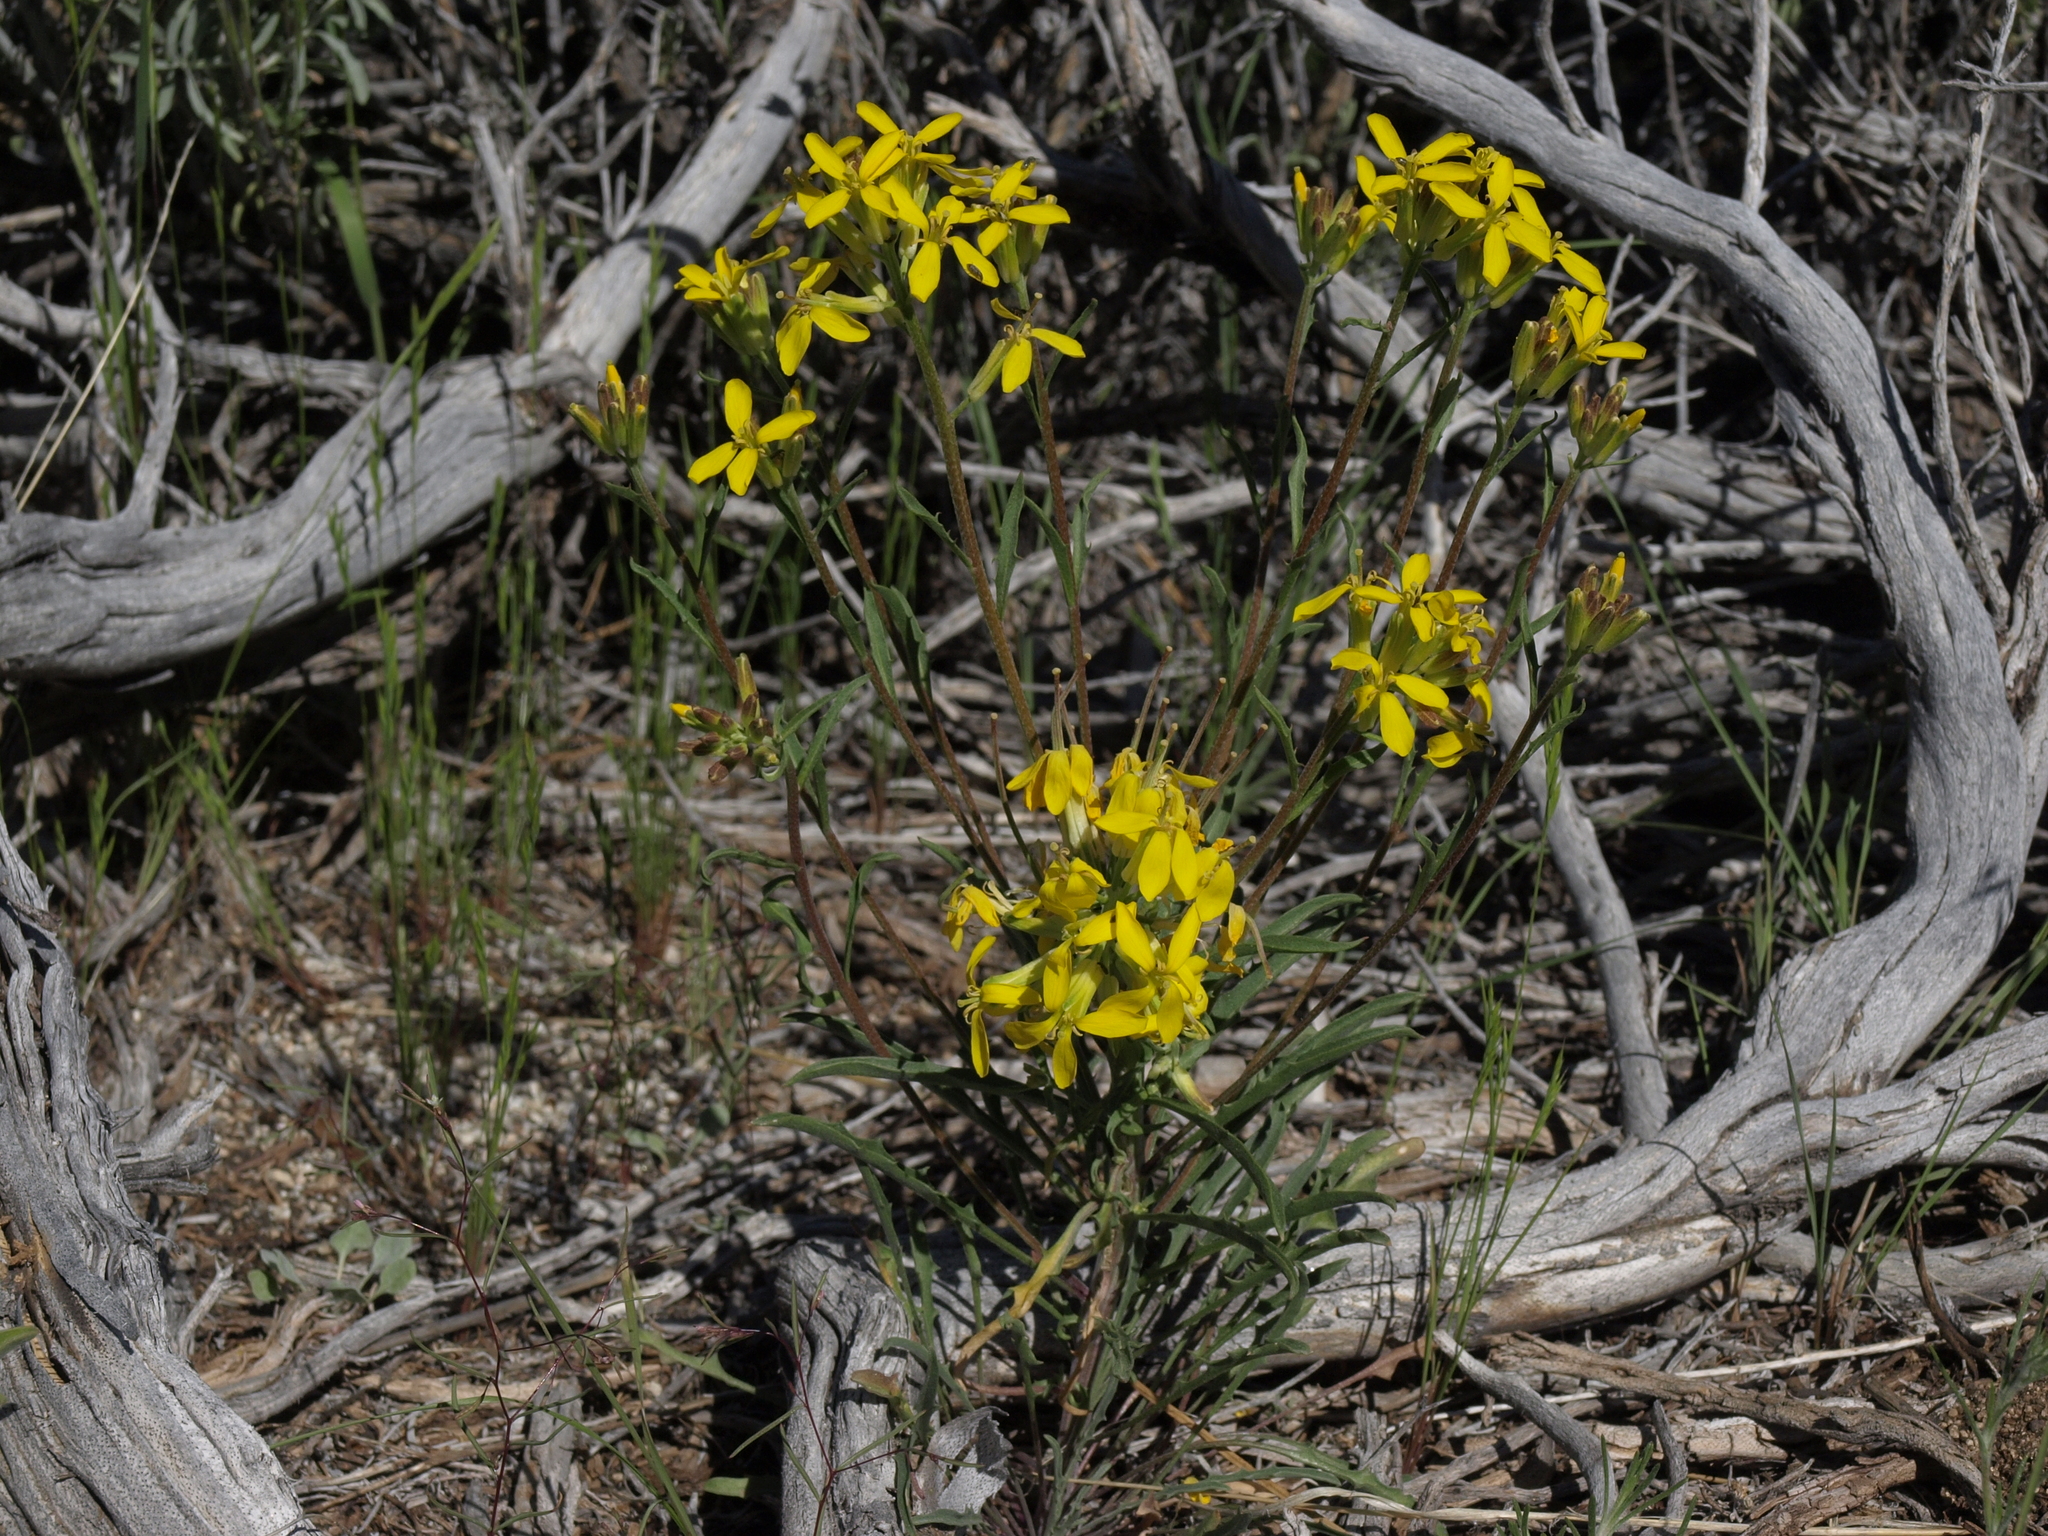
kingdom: Plantae
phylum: Tracheophyta
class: Magnoliopsida
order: Brassicales
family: Brassicaceae
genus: Erysimum
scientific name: Erysimum capitatum
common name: Western wallflower
